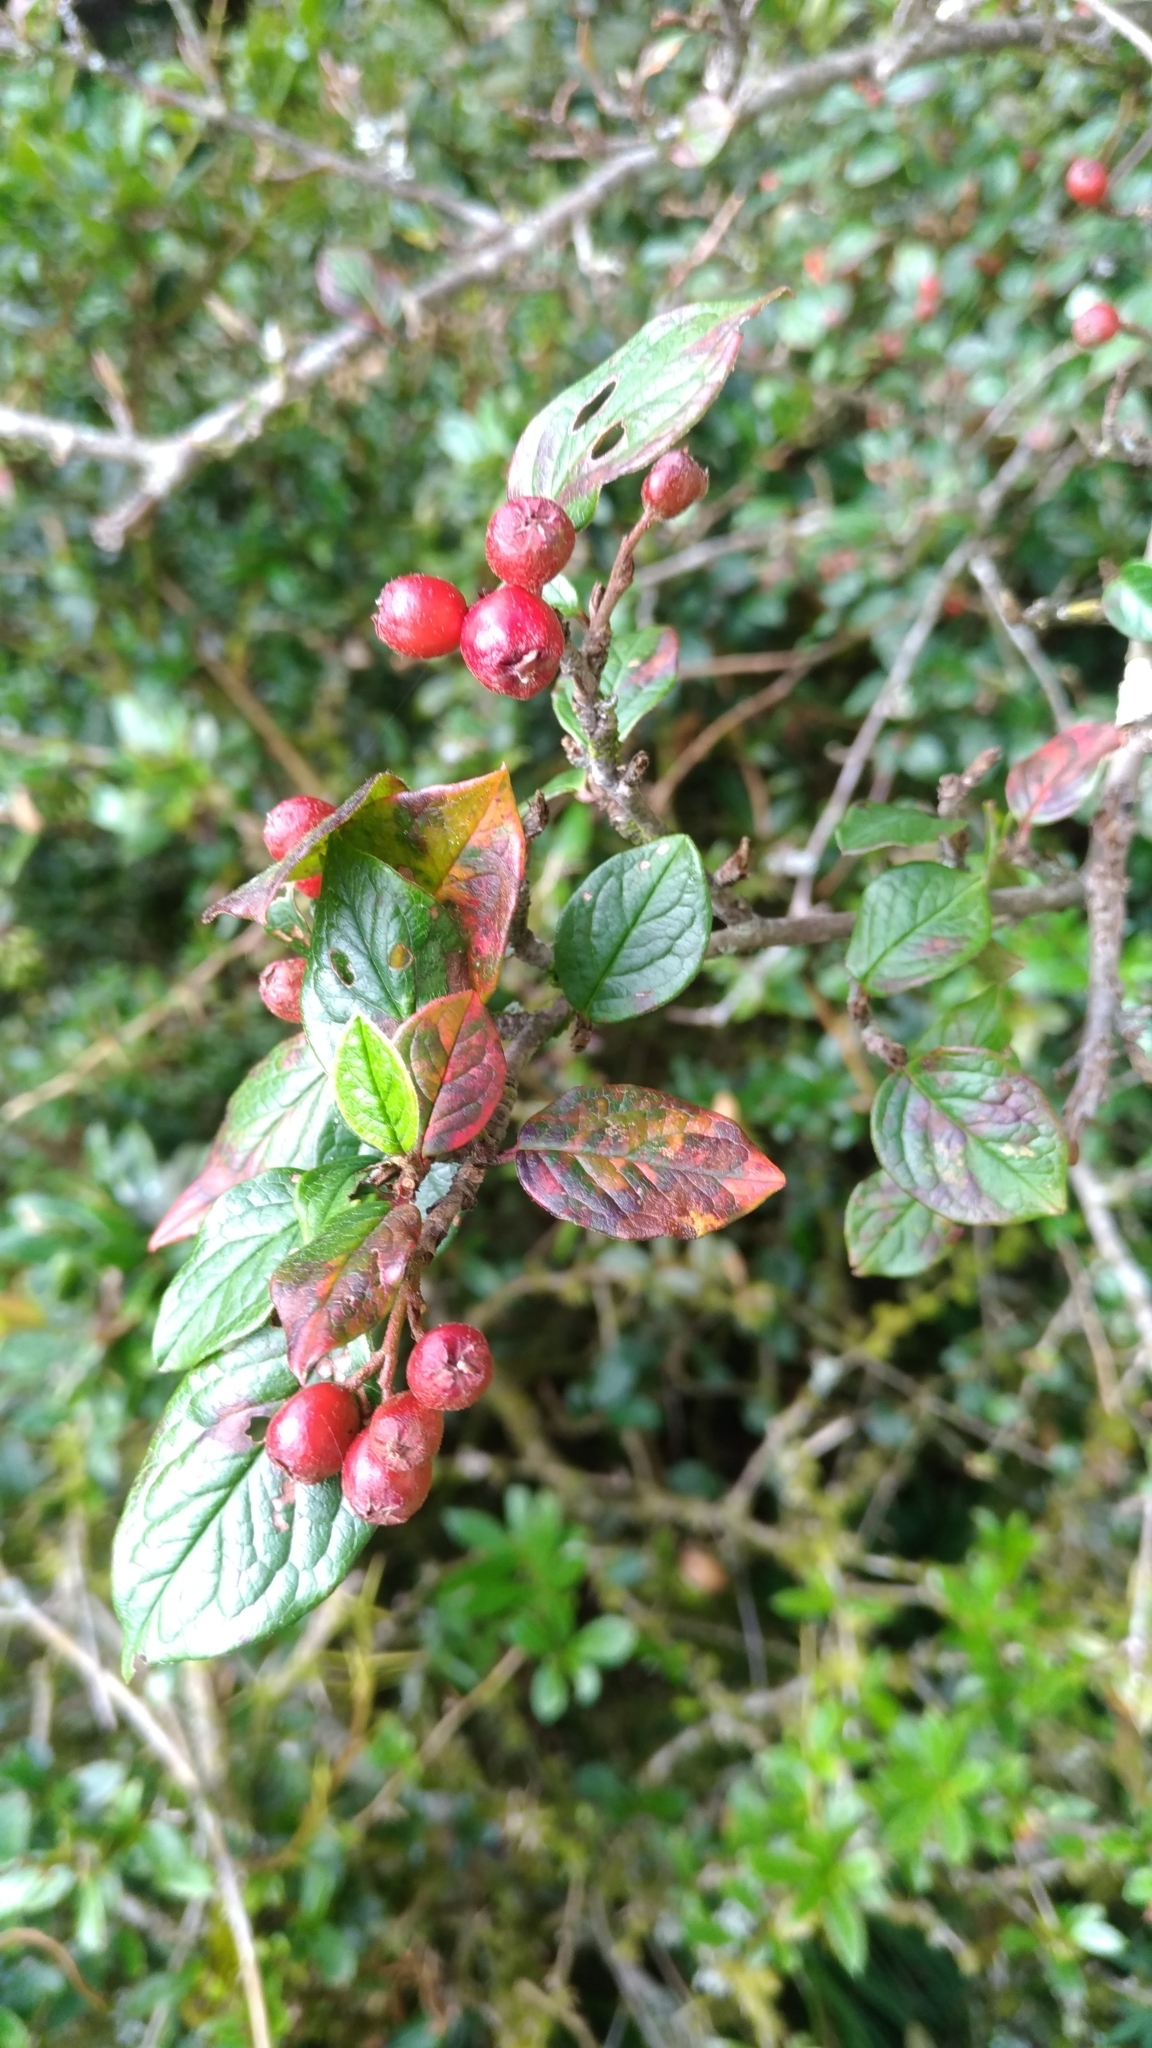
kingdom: Plantae
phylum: Tracheophyta
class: Magnoliopsida
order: Rosales
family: Rosaceae
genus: Cotoneaster
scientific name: Cotoneaster konishii
